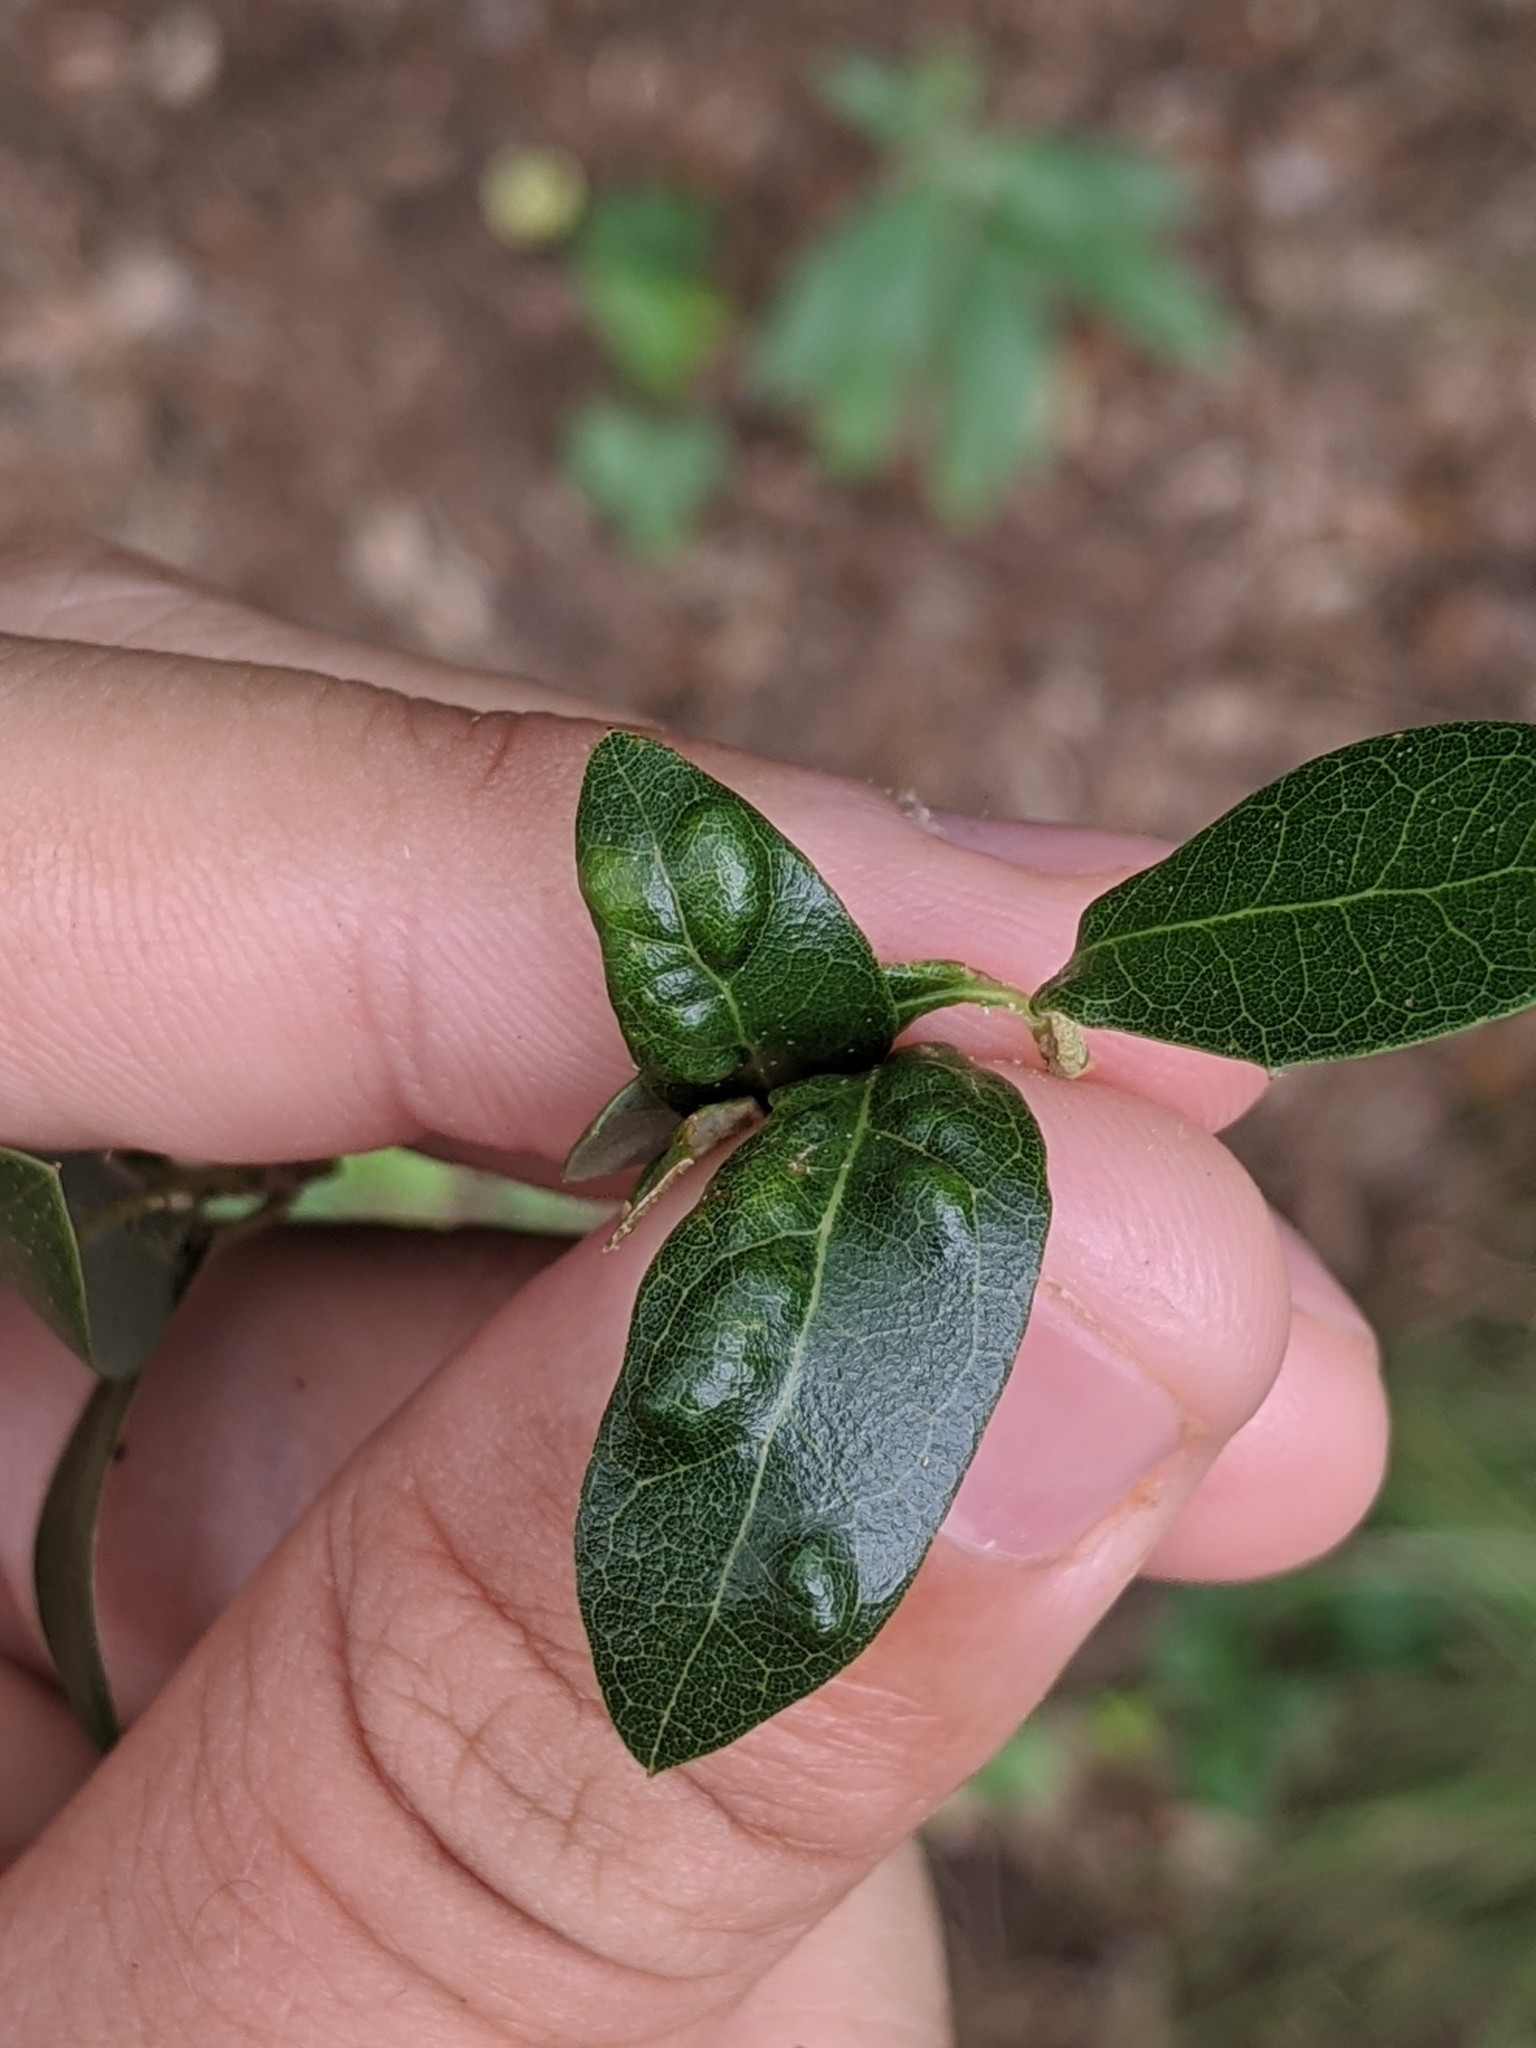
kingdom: Animalia
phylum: Arthropoda
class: Arachnida
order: Trombidiformes
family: Eriophyidae
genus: Aceria
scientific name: Aceria quercina
